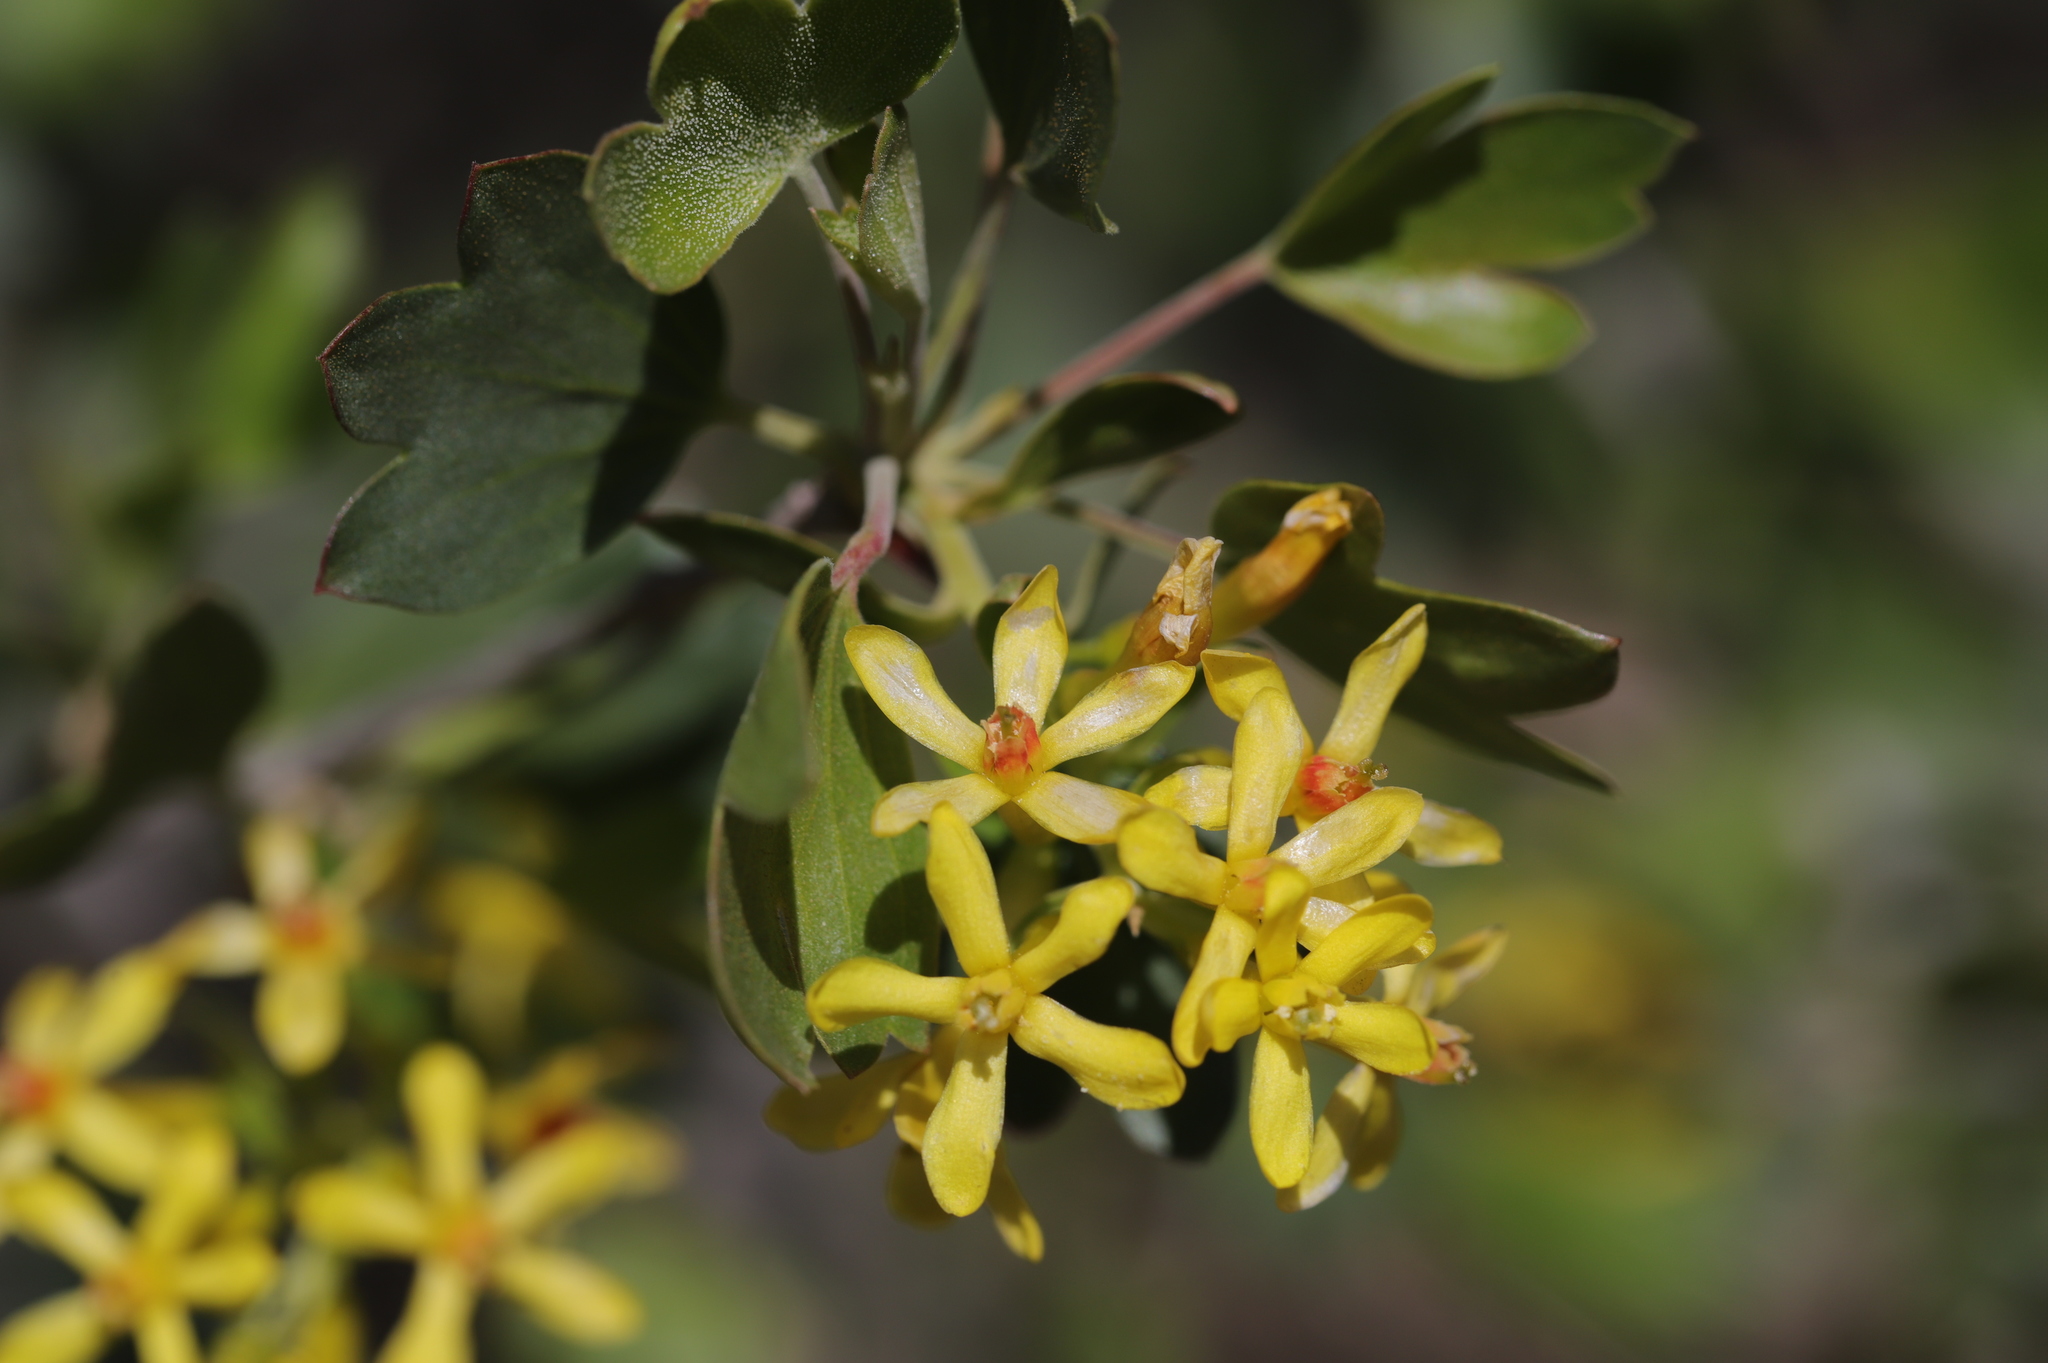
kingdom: Plantae
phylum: Tracheophyta
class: Magnoliopsida
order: Saxifragales
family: Grossulariaceae
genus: Ribes
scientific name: Ribes aureum
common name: Golden currant
